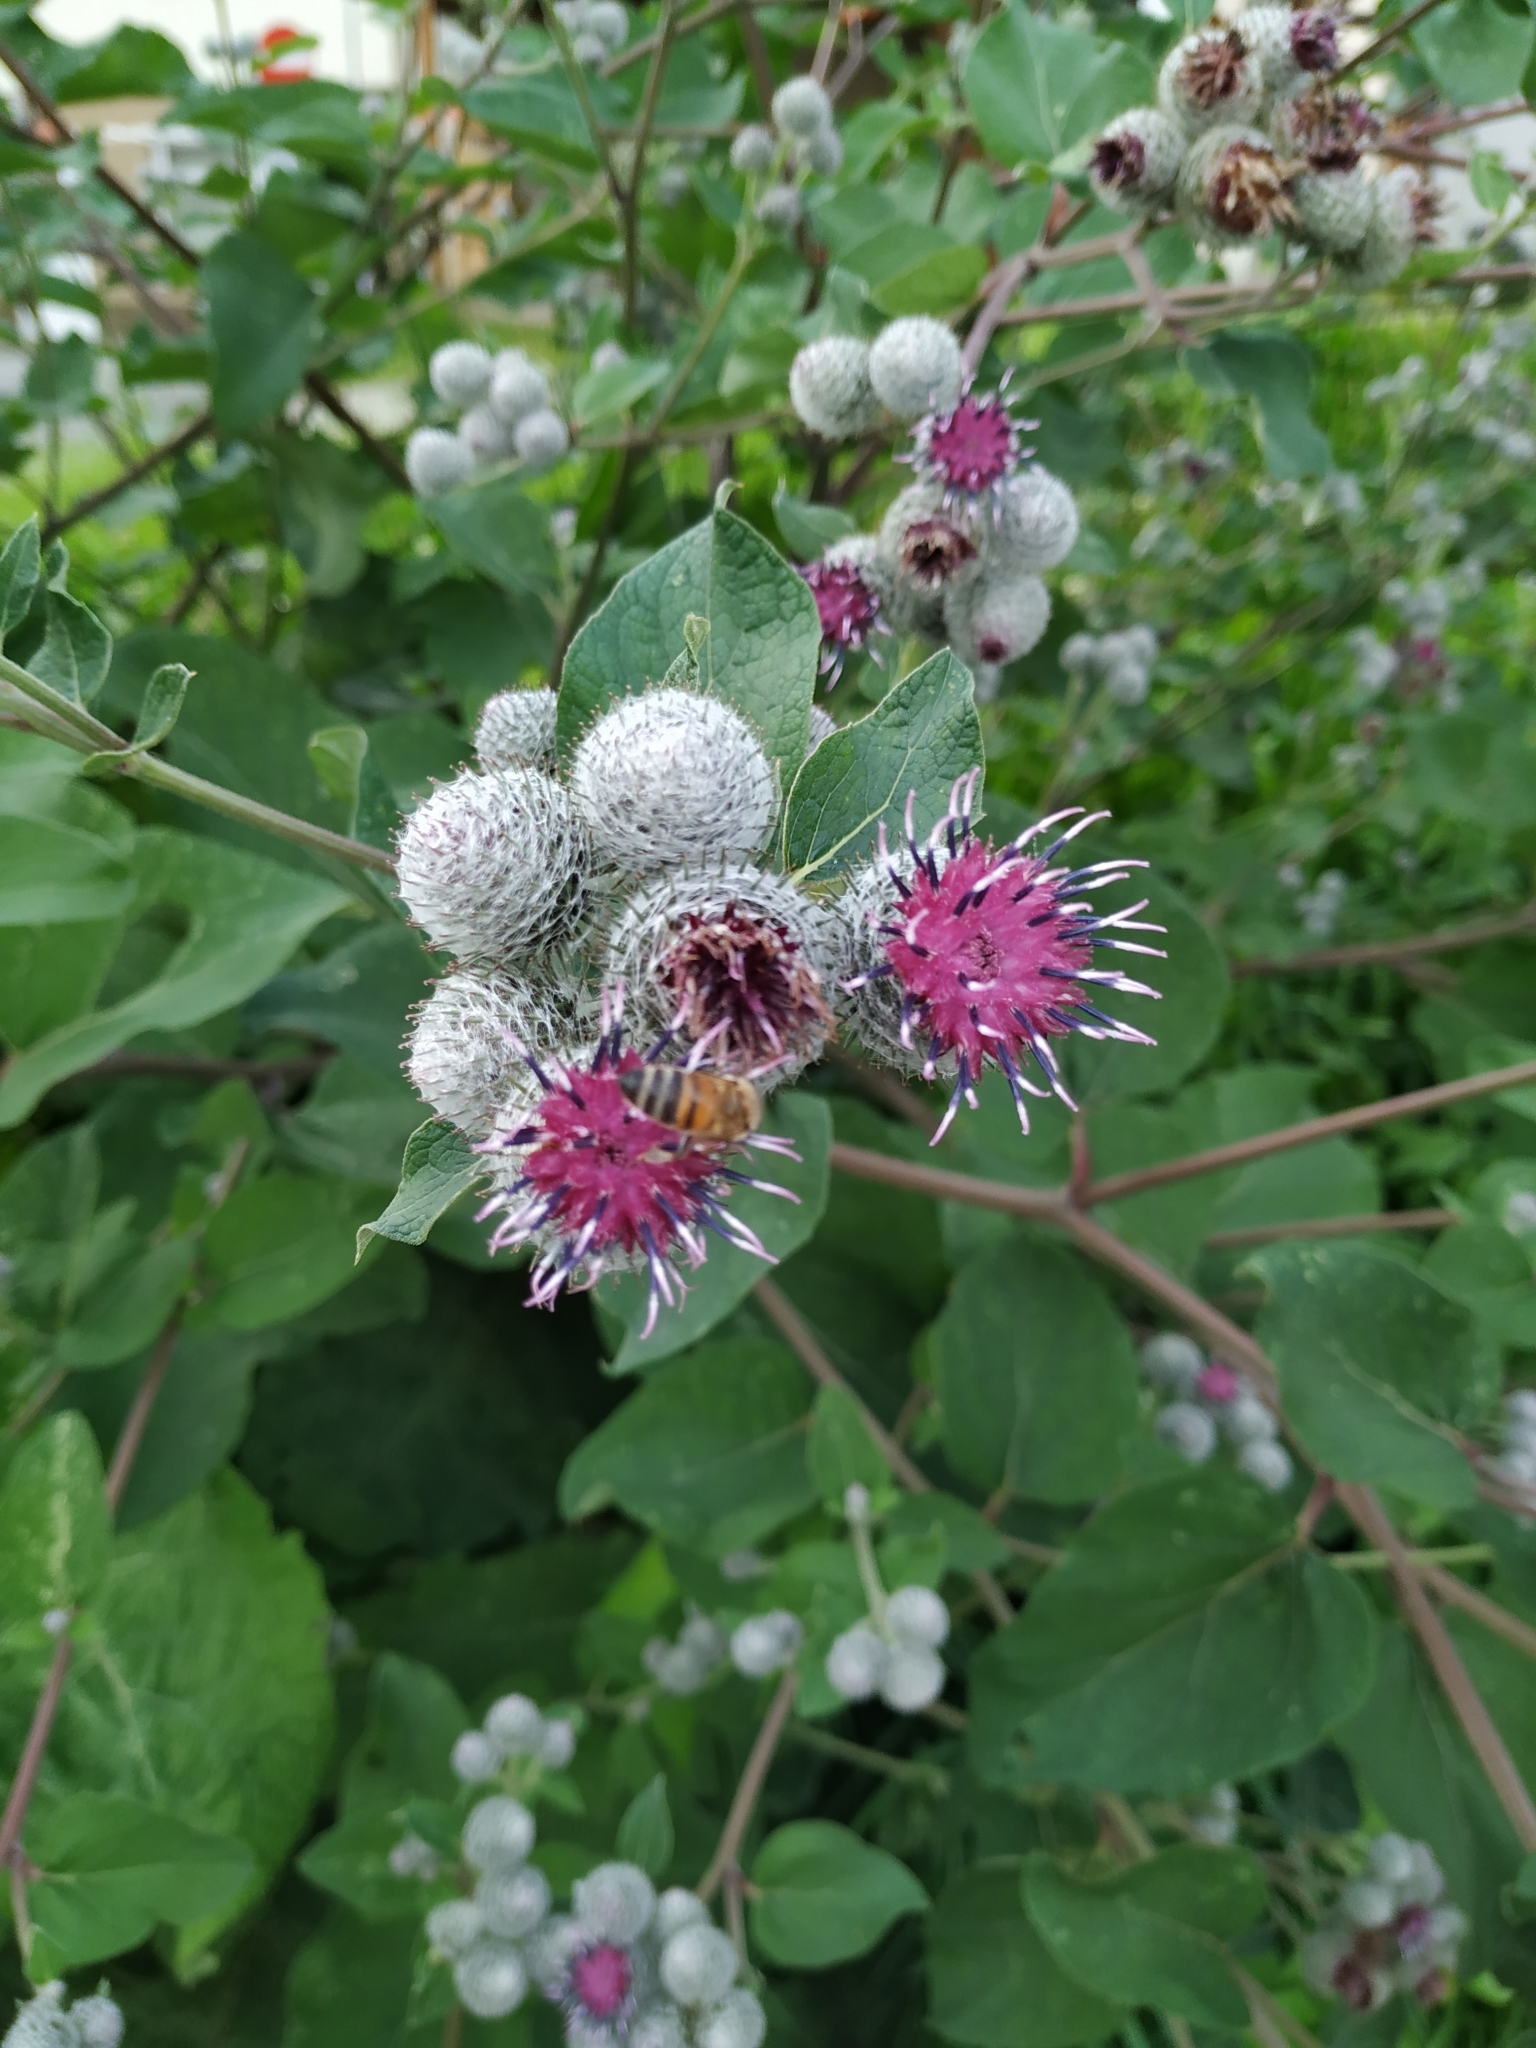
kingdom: Plantae
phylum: Tracheophyta
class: Magnoliopsida
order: Asterales
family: Asteraceae
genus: Arctium
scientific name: Arctium tomentosum
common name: Woolly burdock
